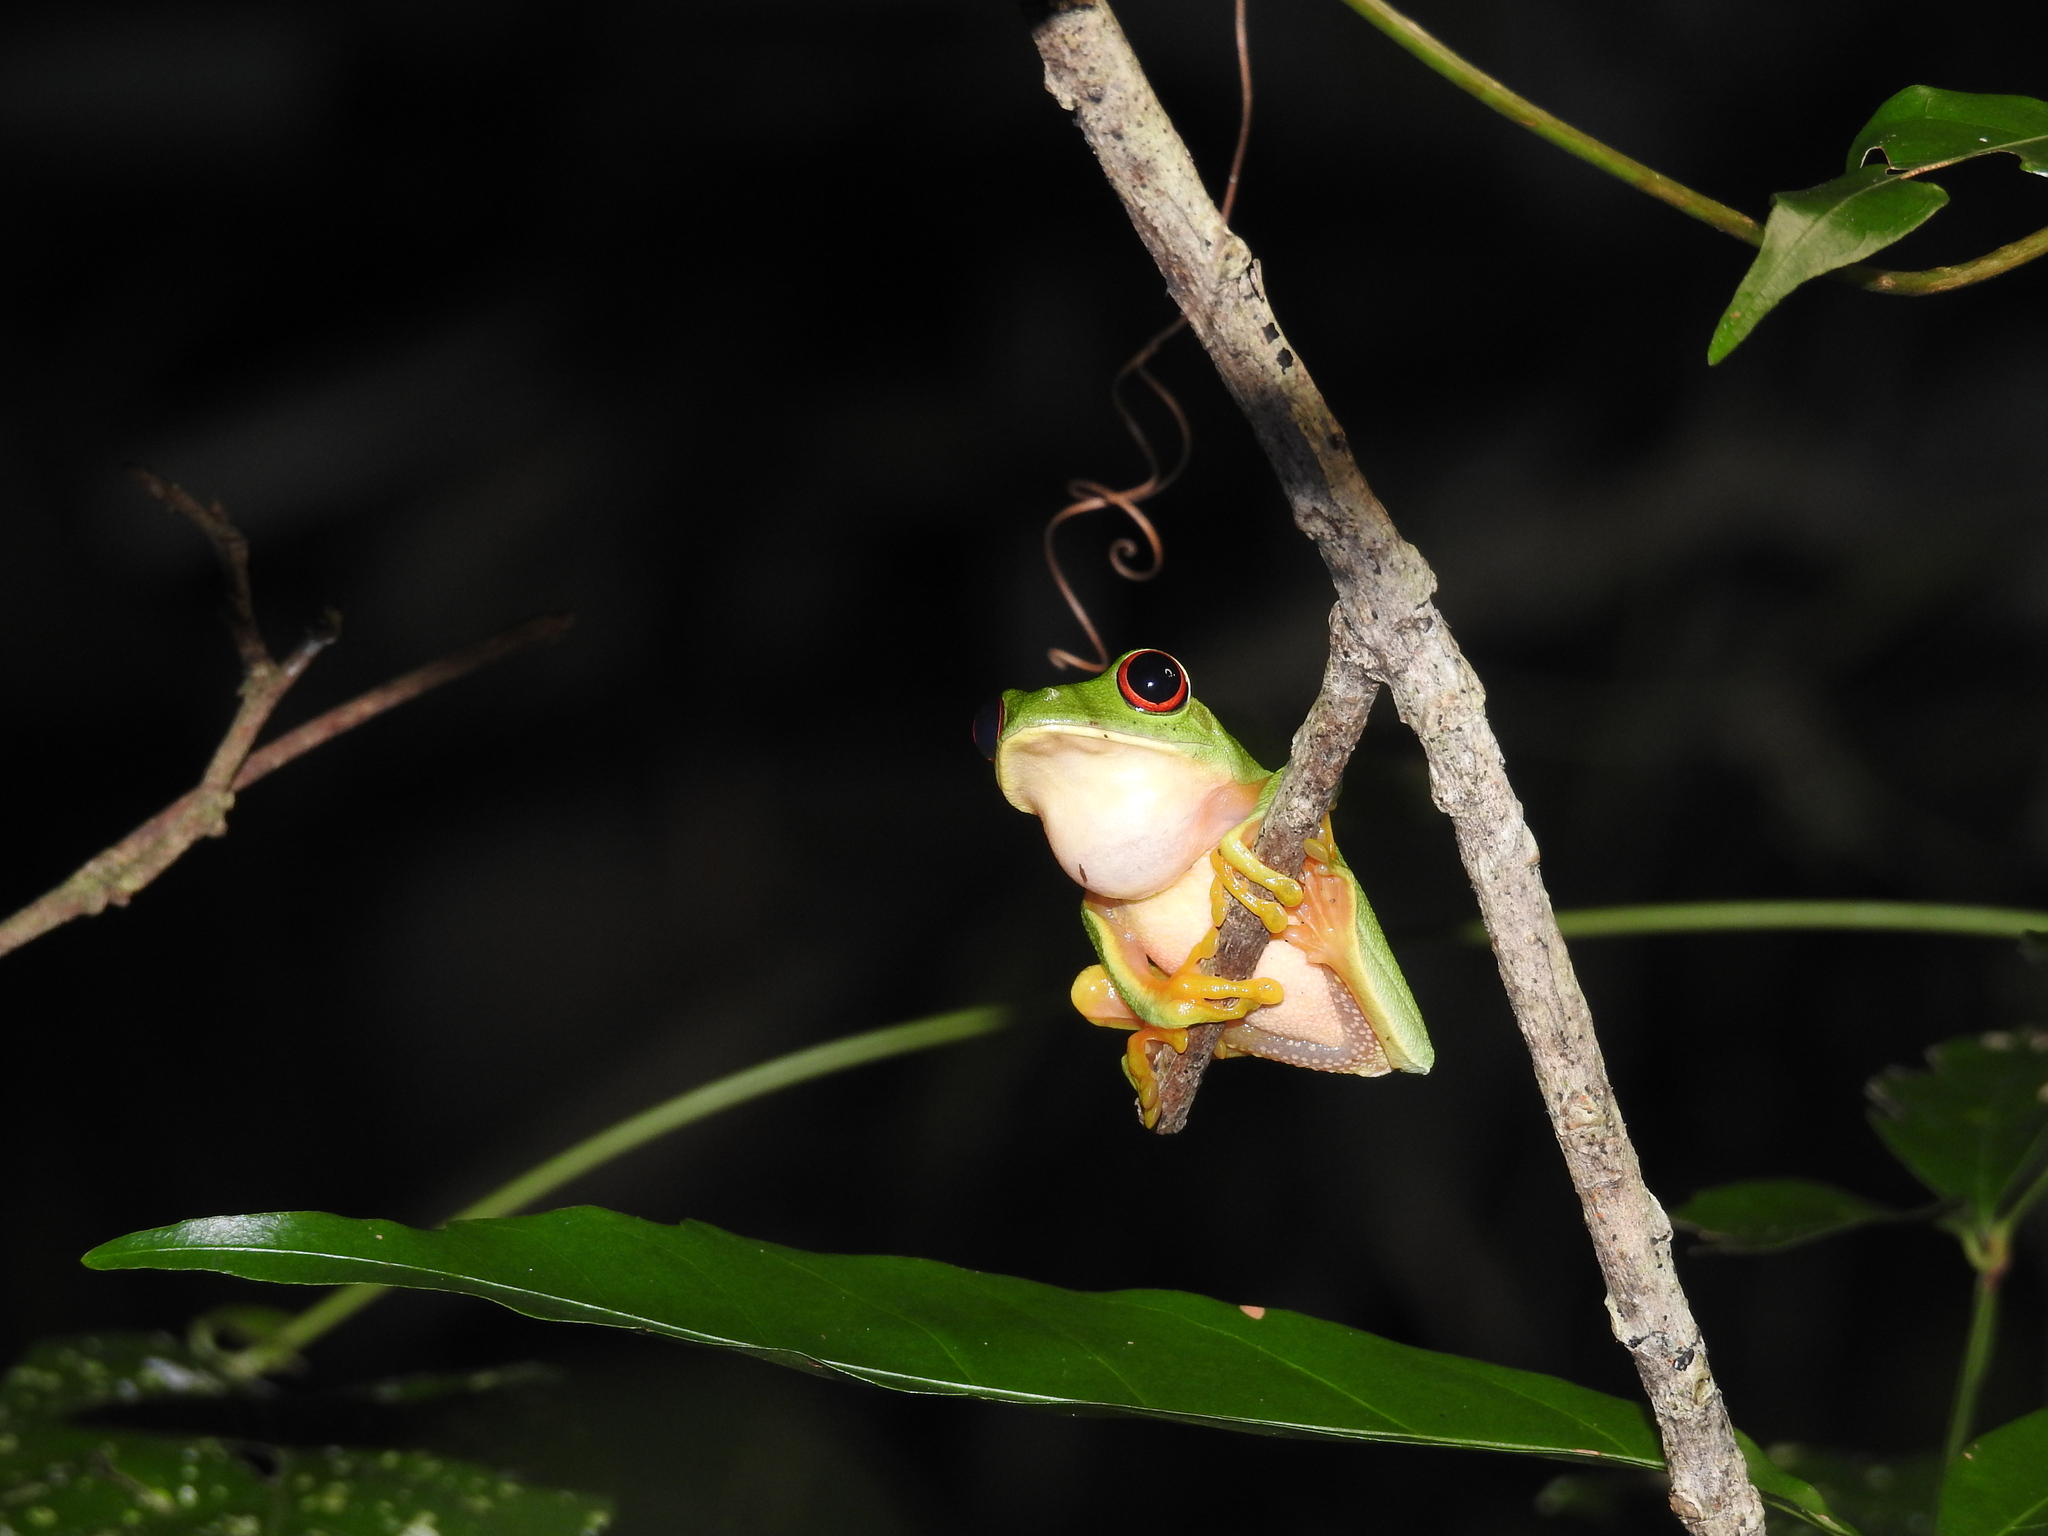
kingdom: Animalia
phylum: Chordata
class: Amphibia
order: Anura
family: Phyllomedusidae
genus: Agalychnis
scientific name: Agalychnis
